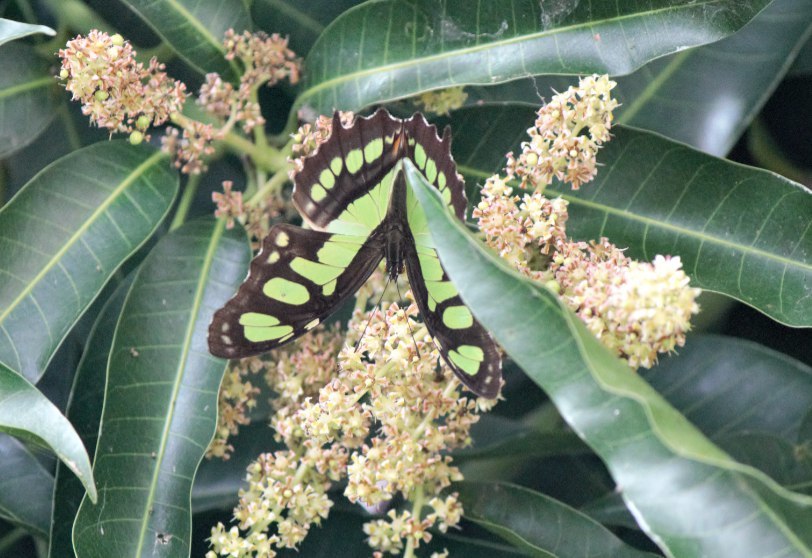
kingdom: Animalia
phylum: Arthropoda
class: Insecta
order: Lepidoptera
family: Nymphalidae
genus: Siproeta
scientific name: Siproeta stelenes
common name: Malachite
